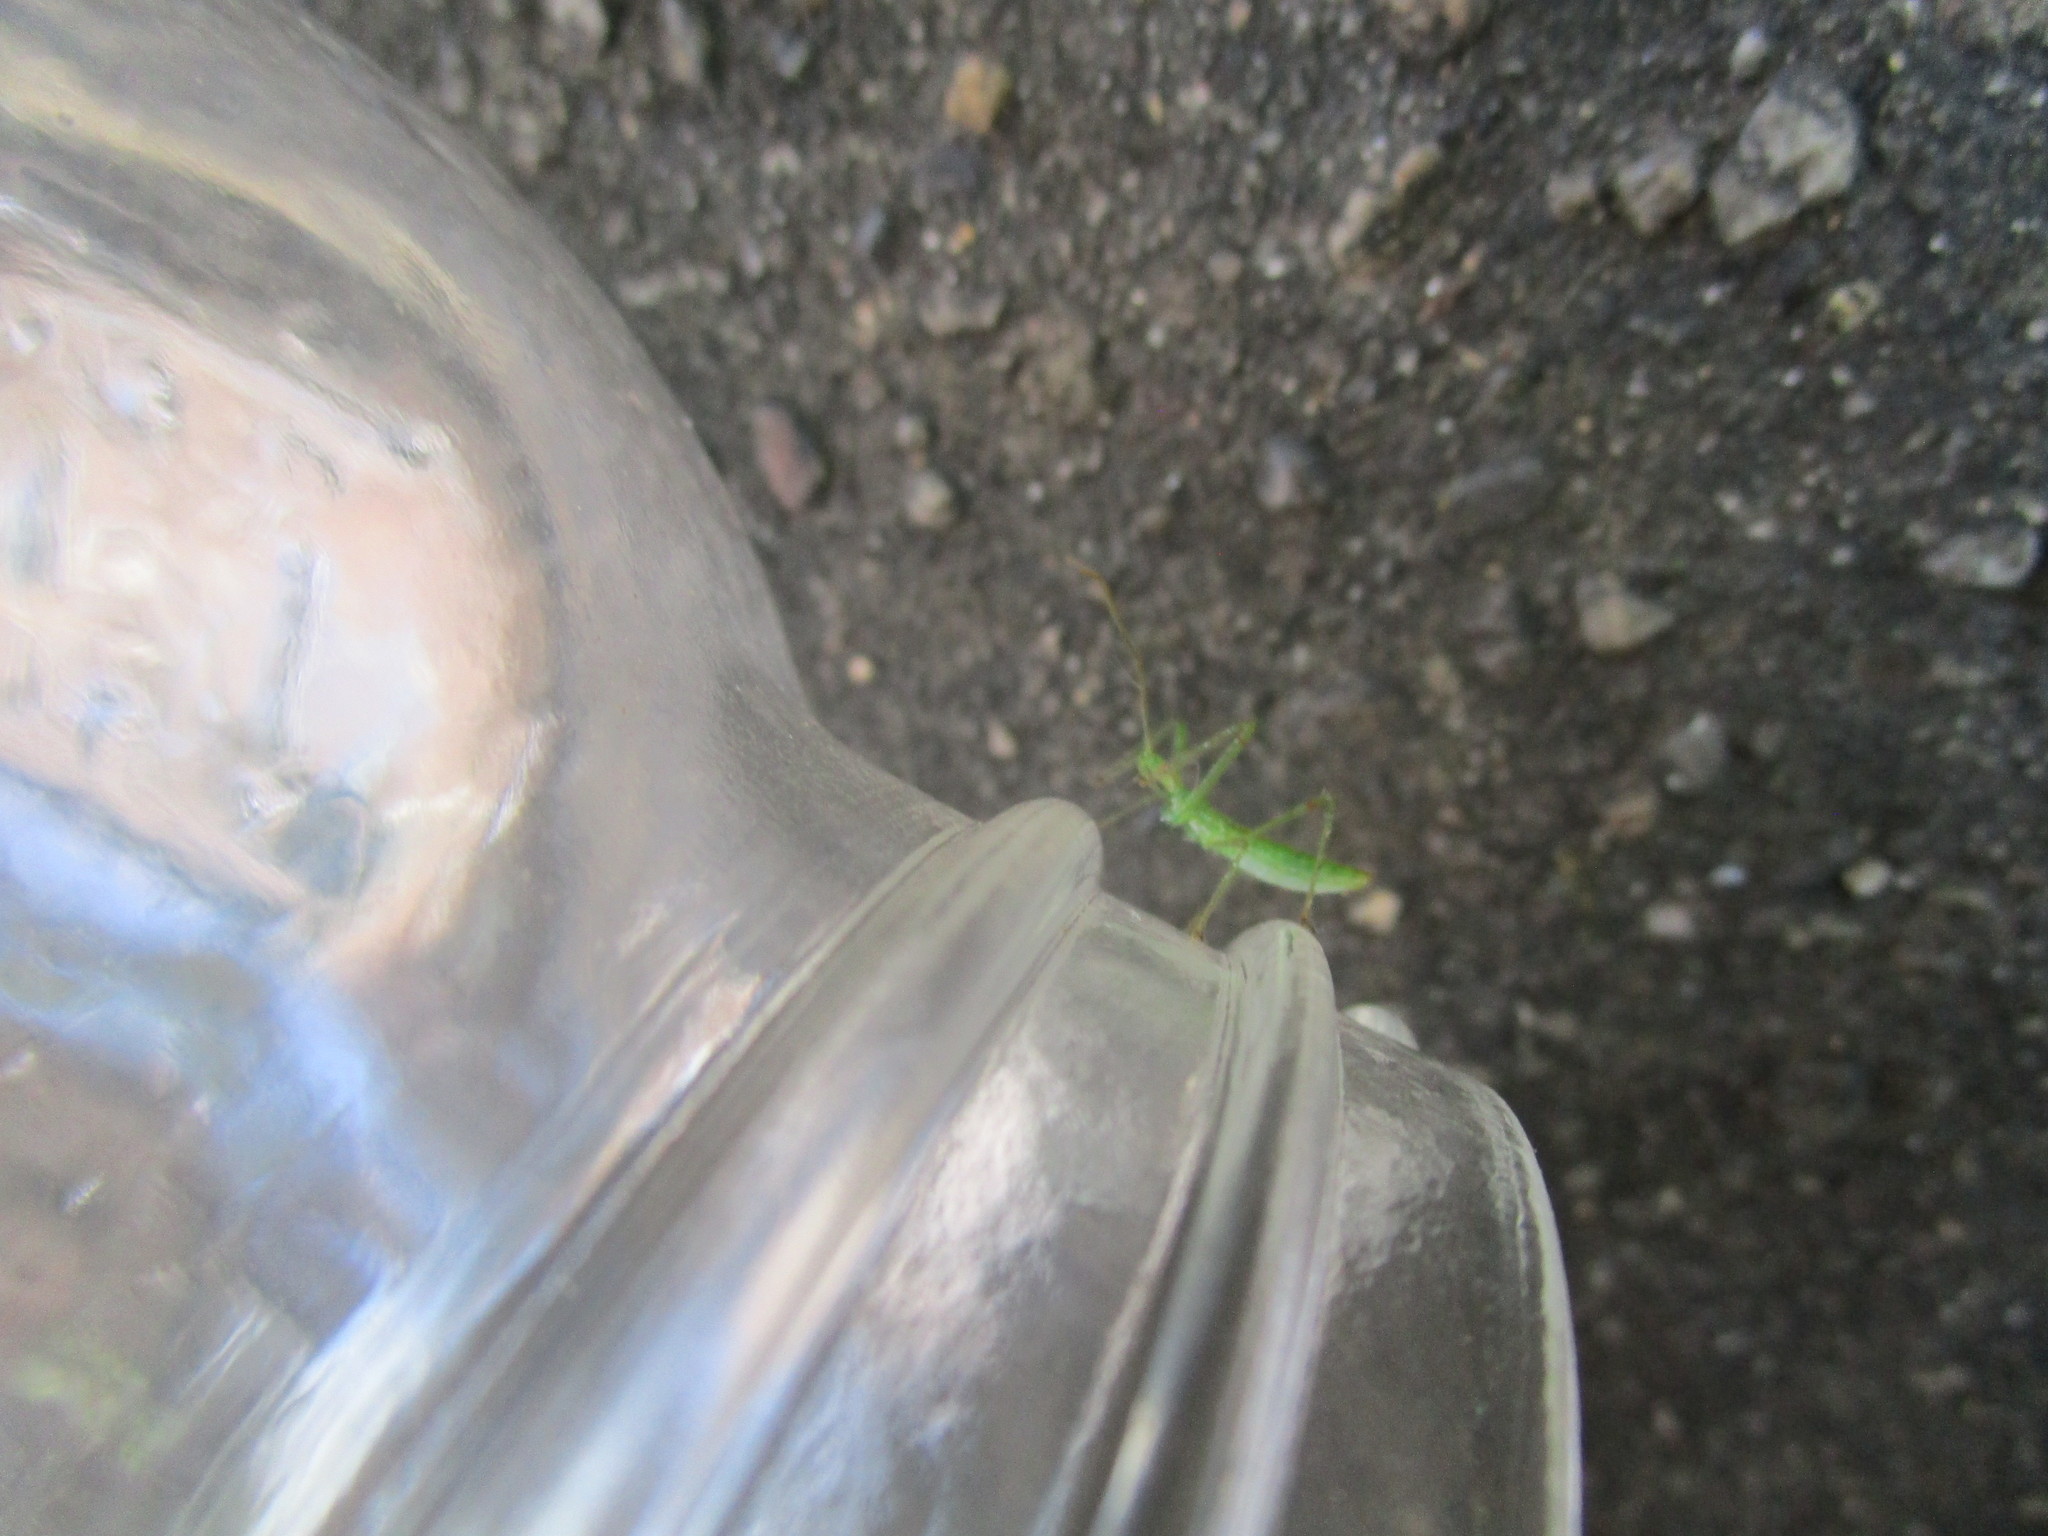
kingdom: Animalia
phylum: Arthropoda
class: Insecta
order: Hemiptera
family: Reduviidae
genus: Zelus
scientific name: Zelus luridus
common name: Pale green assassin bug
